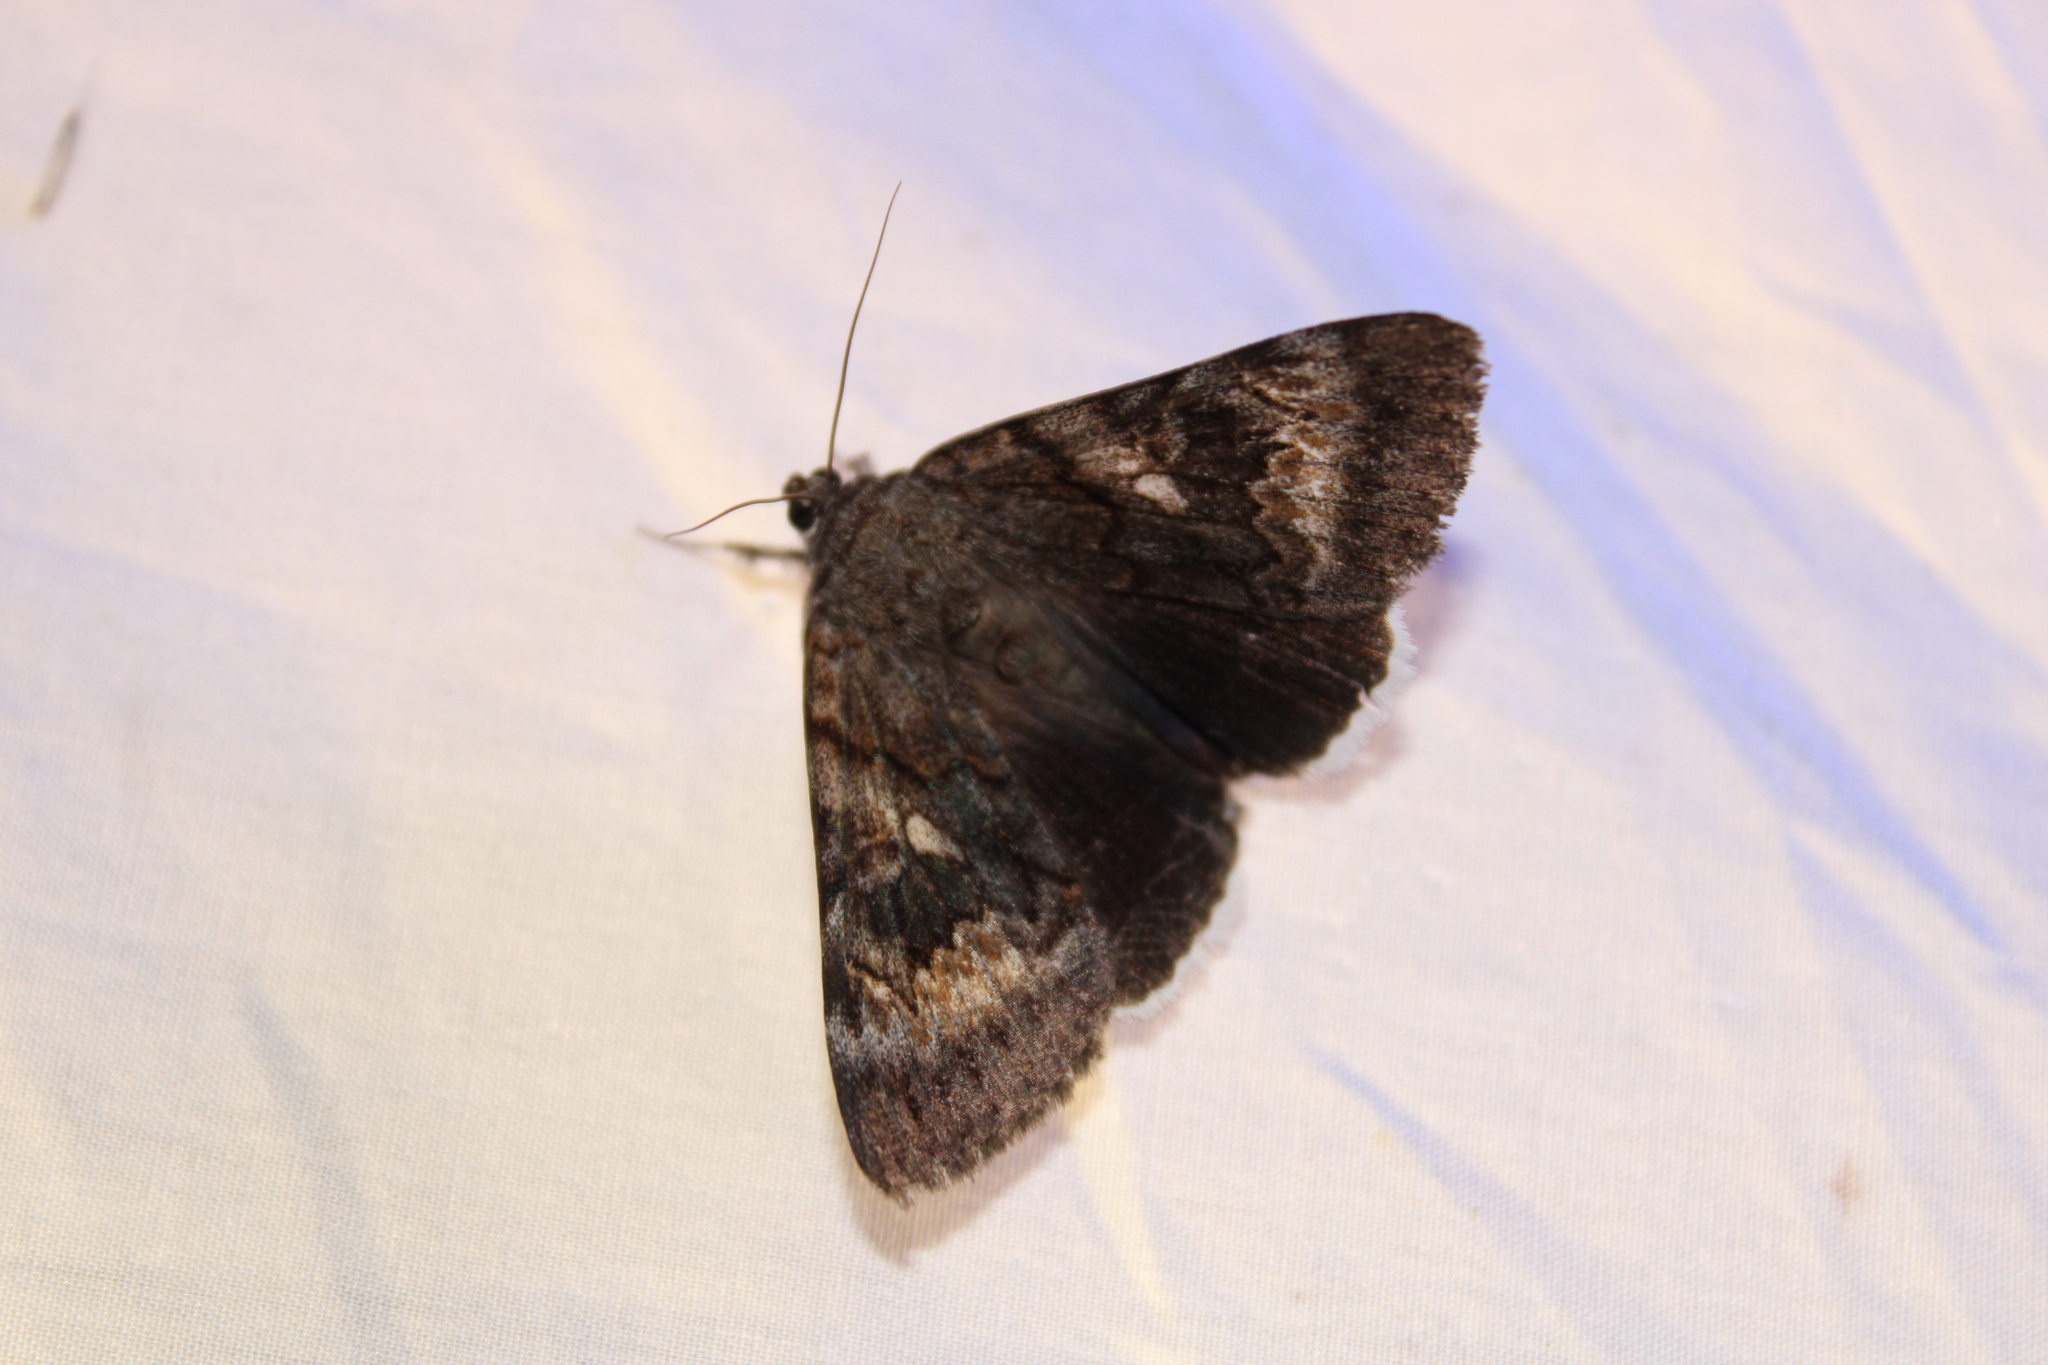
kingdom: Animalia
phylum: Arthropoda
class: Insecta
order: Lepidoptera
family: Erebidae
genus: Catocala
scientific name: Catocala epione
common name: Epione underwing
